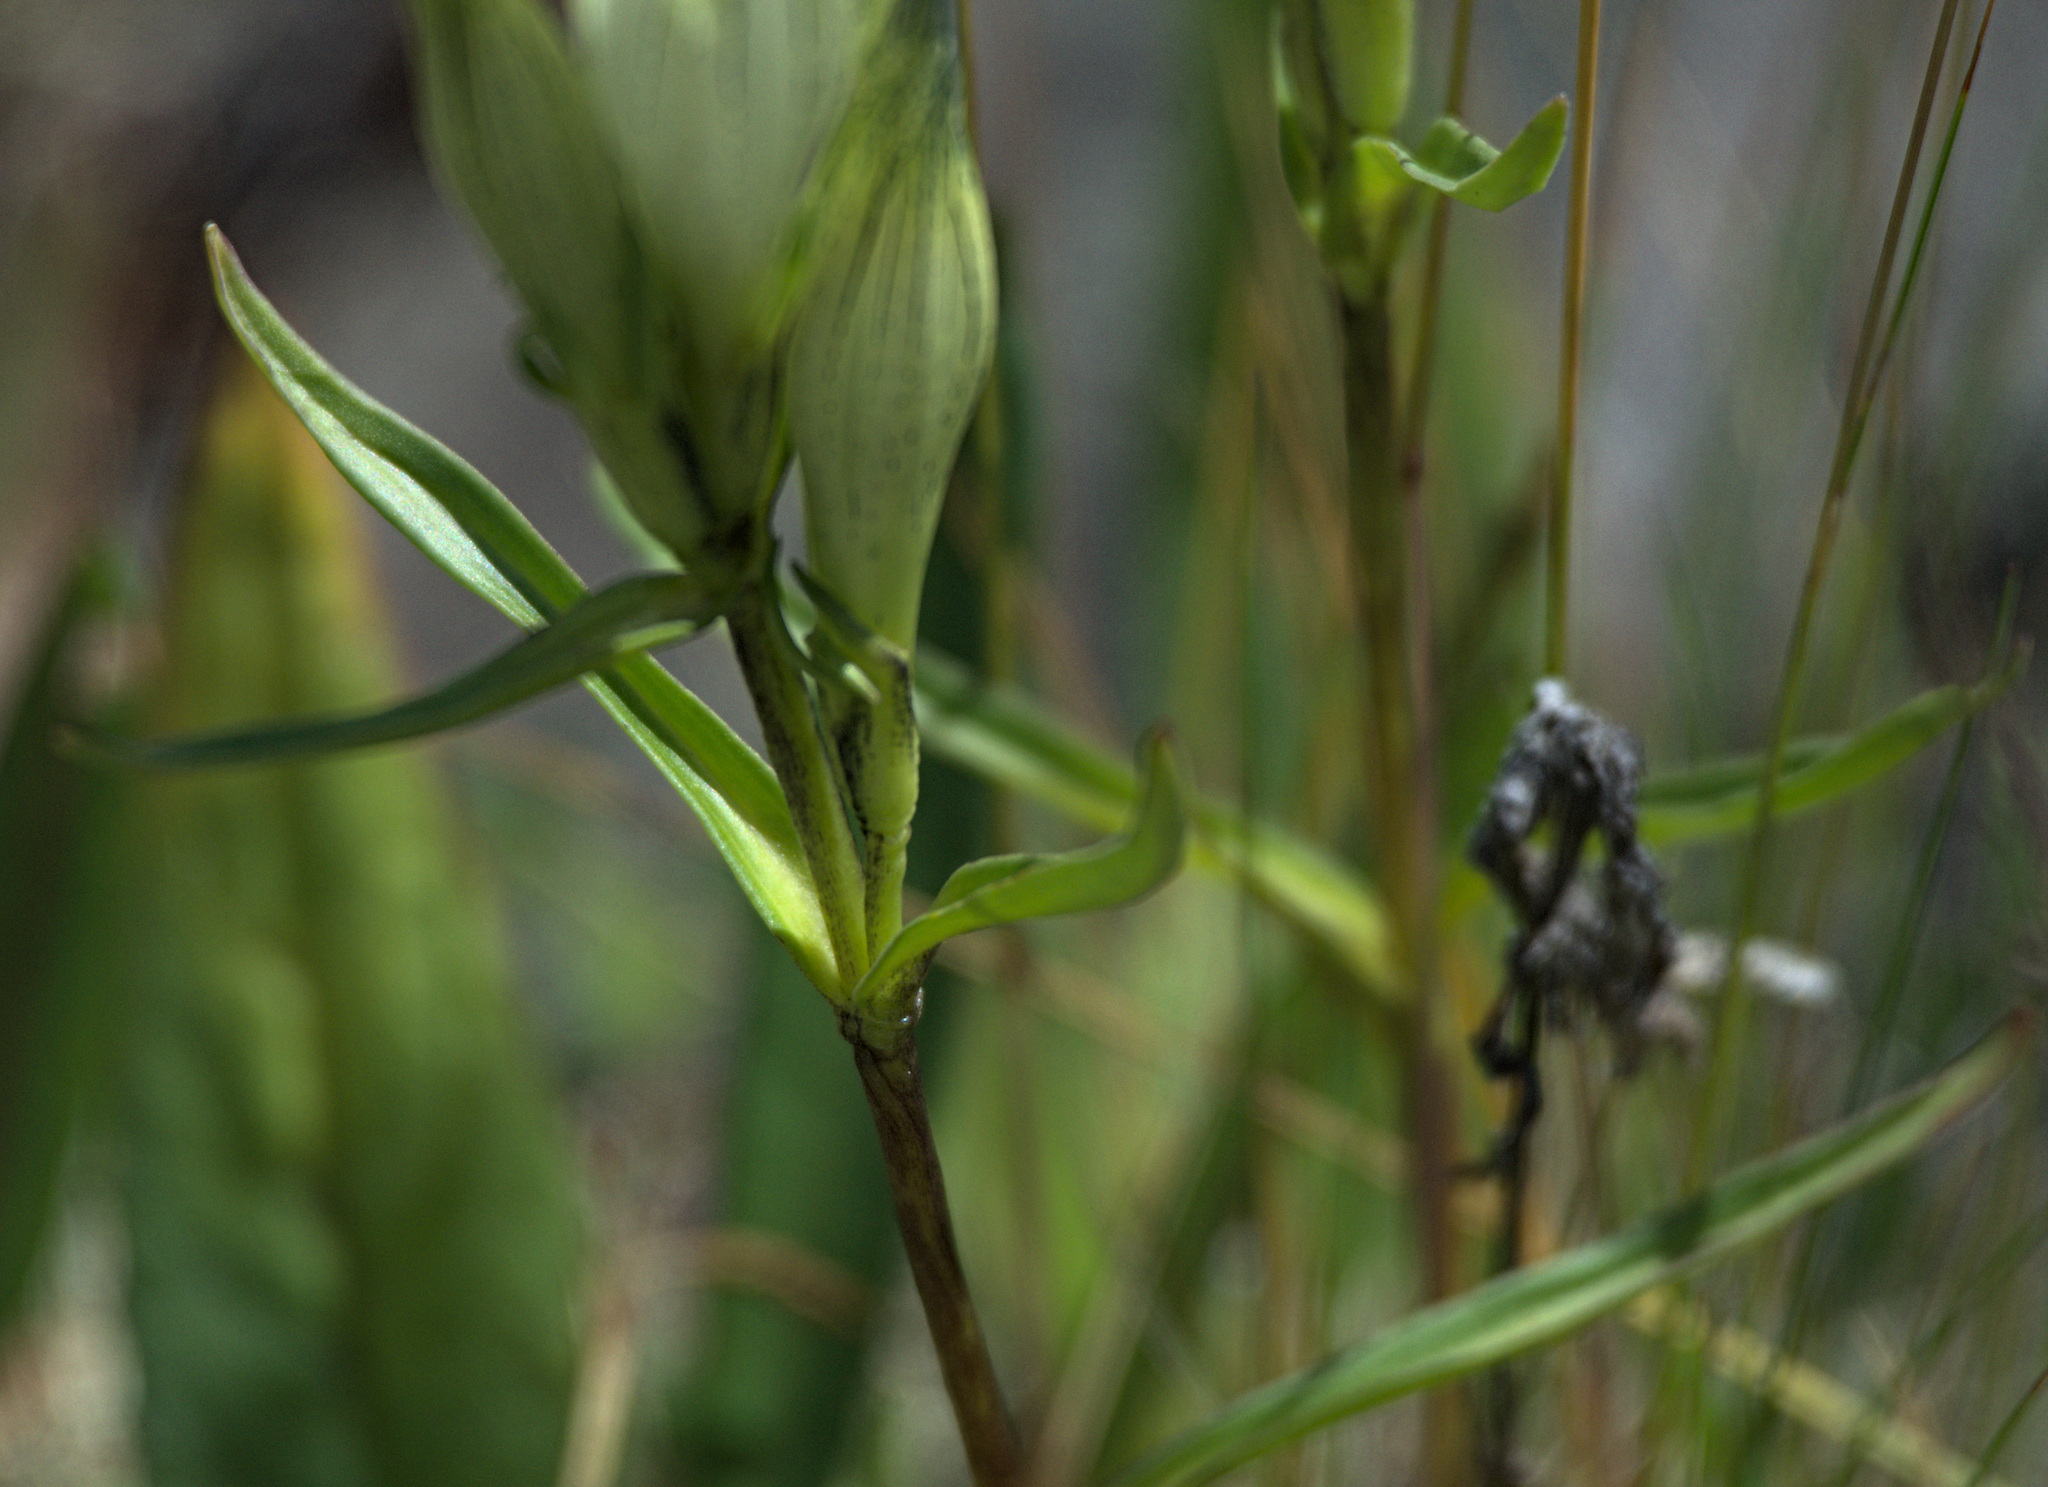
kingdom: Plantae
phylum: Tracheophyta
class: Magnoliopsida
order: Gentianales
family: Gentianaceae
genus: Gentiana
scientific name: Gentiana algida
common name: Arctic gentian
